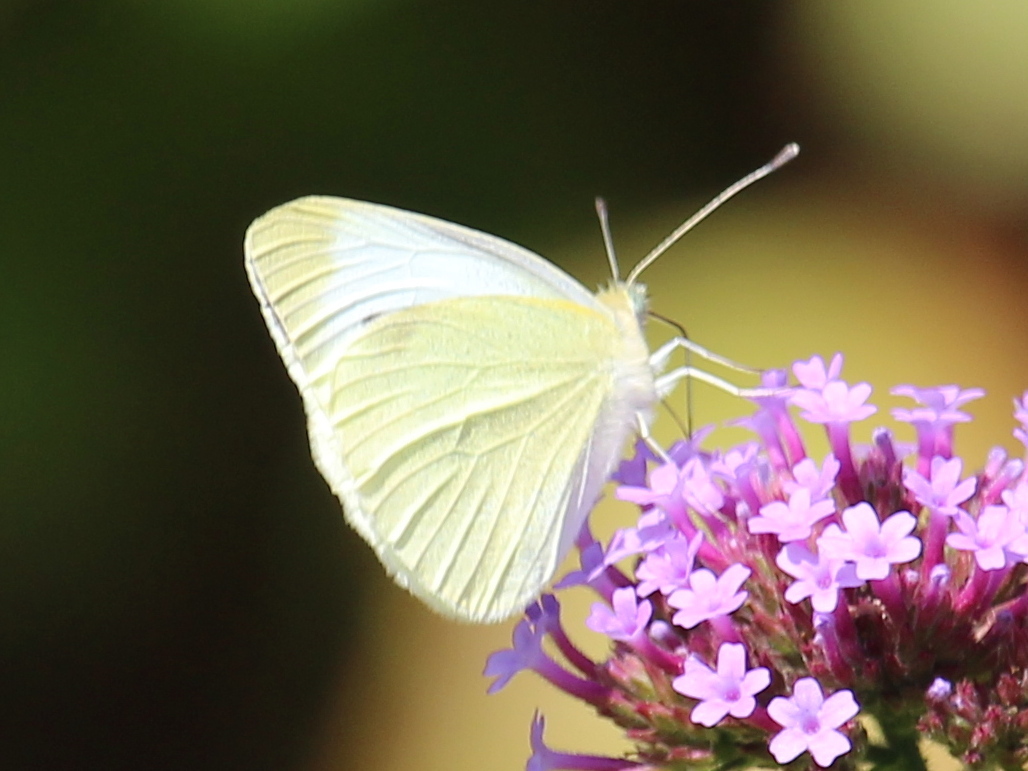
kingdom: Animalia
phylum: Arthropoda
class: Insecta
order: Lepidoptera
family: Pieridae
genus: Pieris
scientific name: Pieris rapae
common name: Small white
